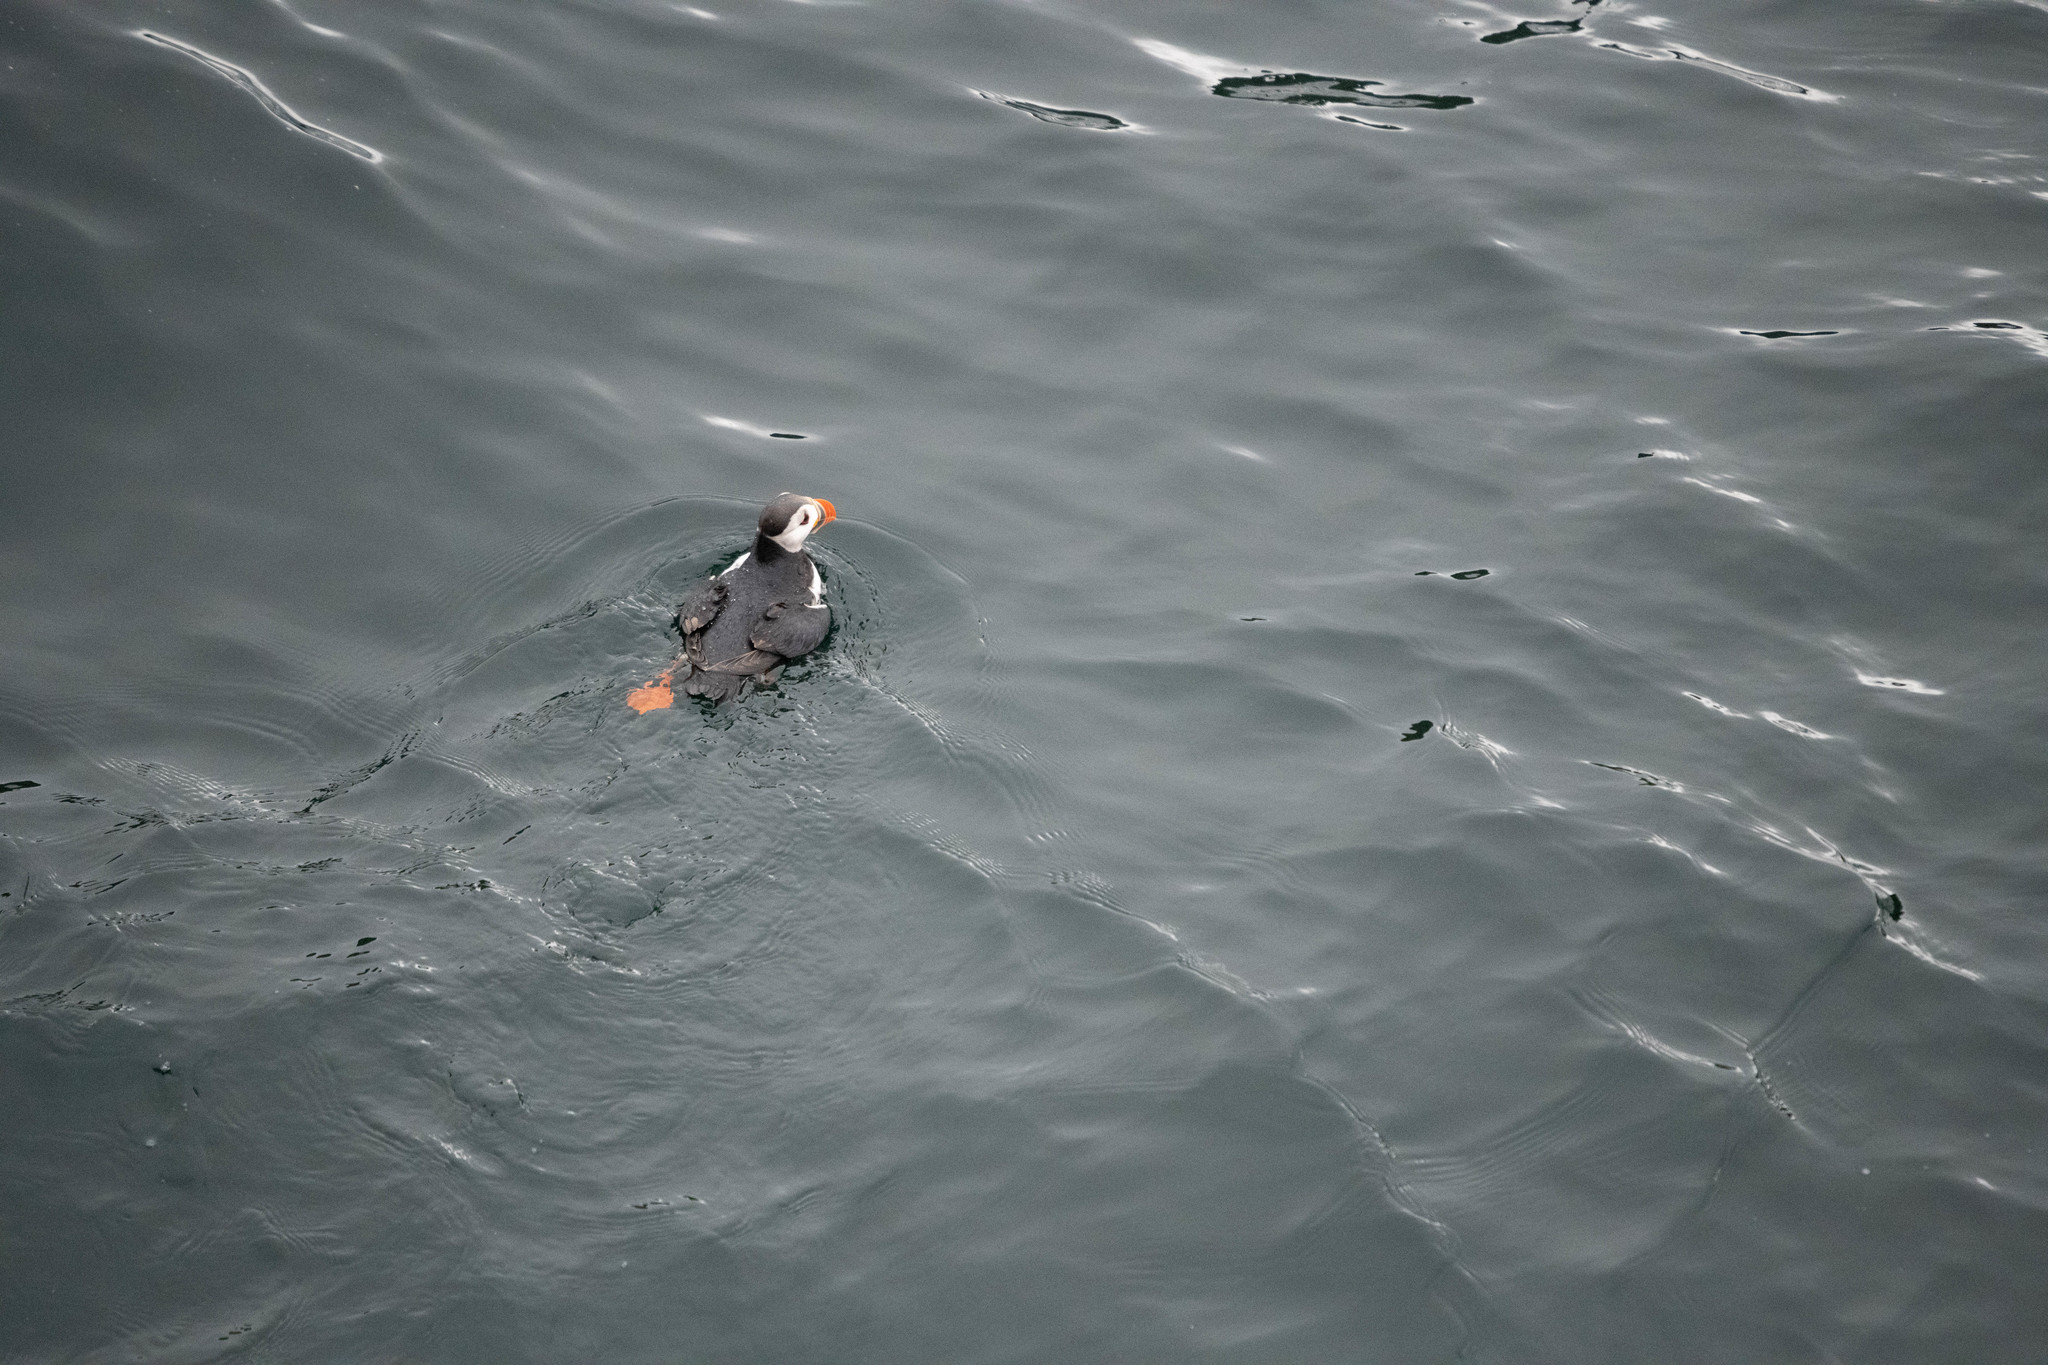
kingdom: Animalia
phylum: Chordata
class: Aves
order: Charadriiformes
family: Alcidae
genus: Fratercula
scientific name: Fratercula arctica
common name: Atlantic puffin
